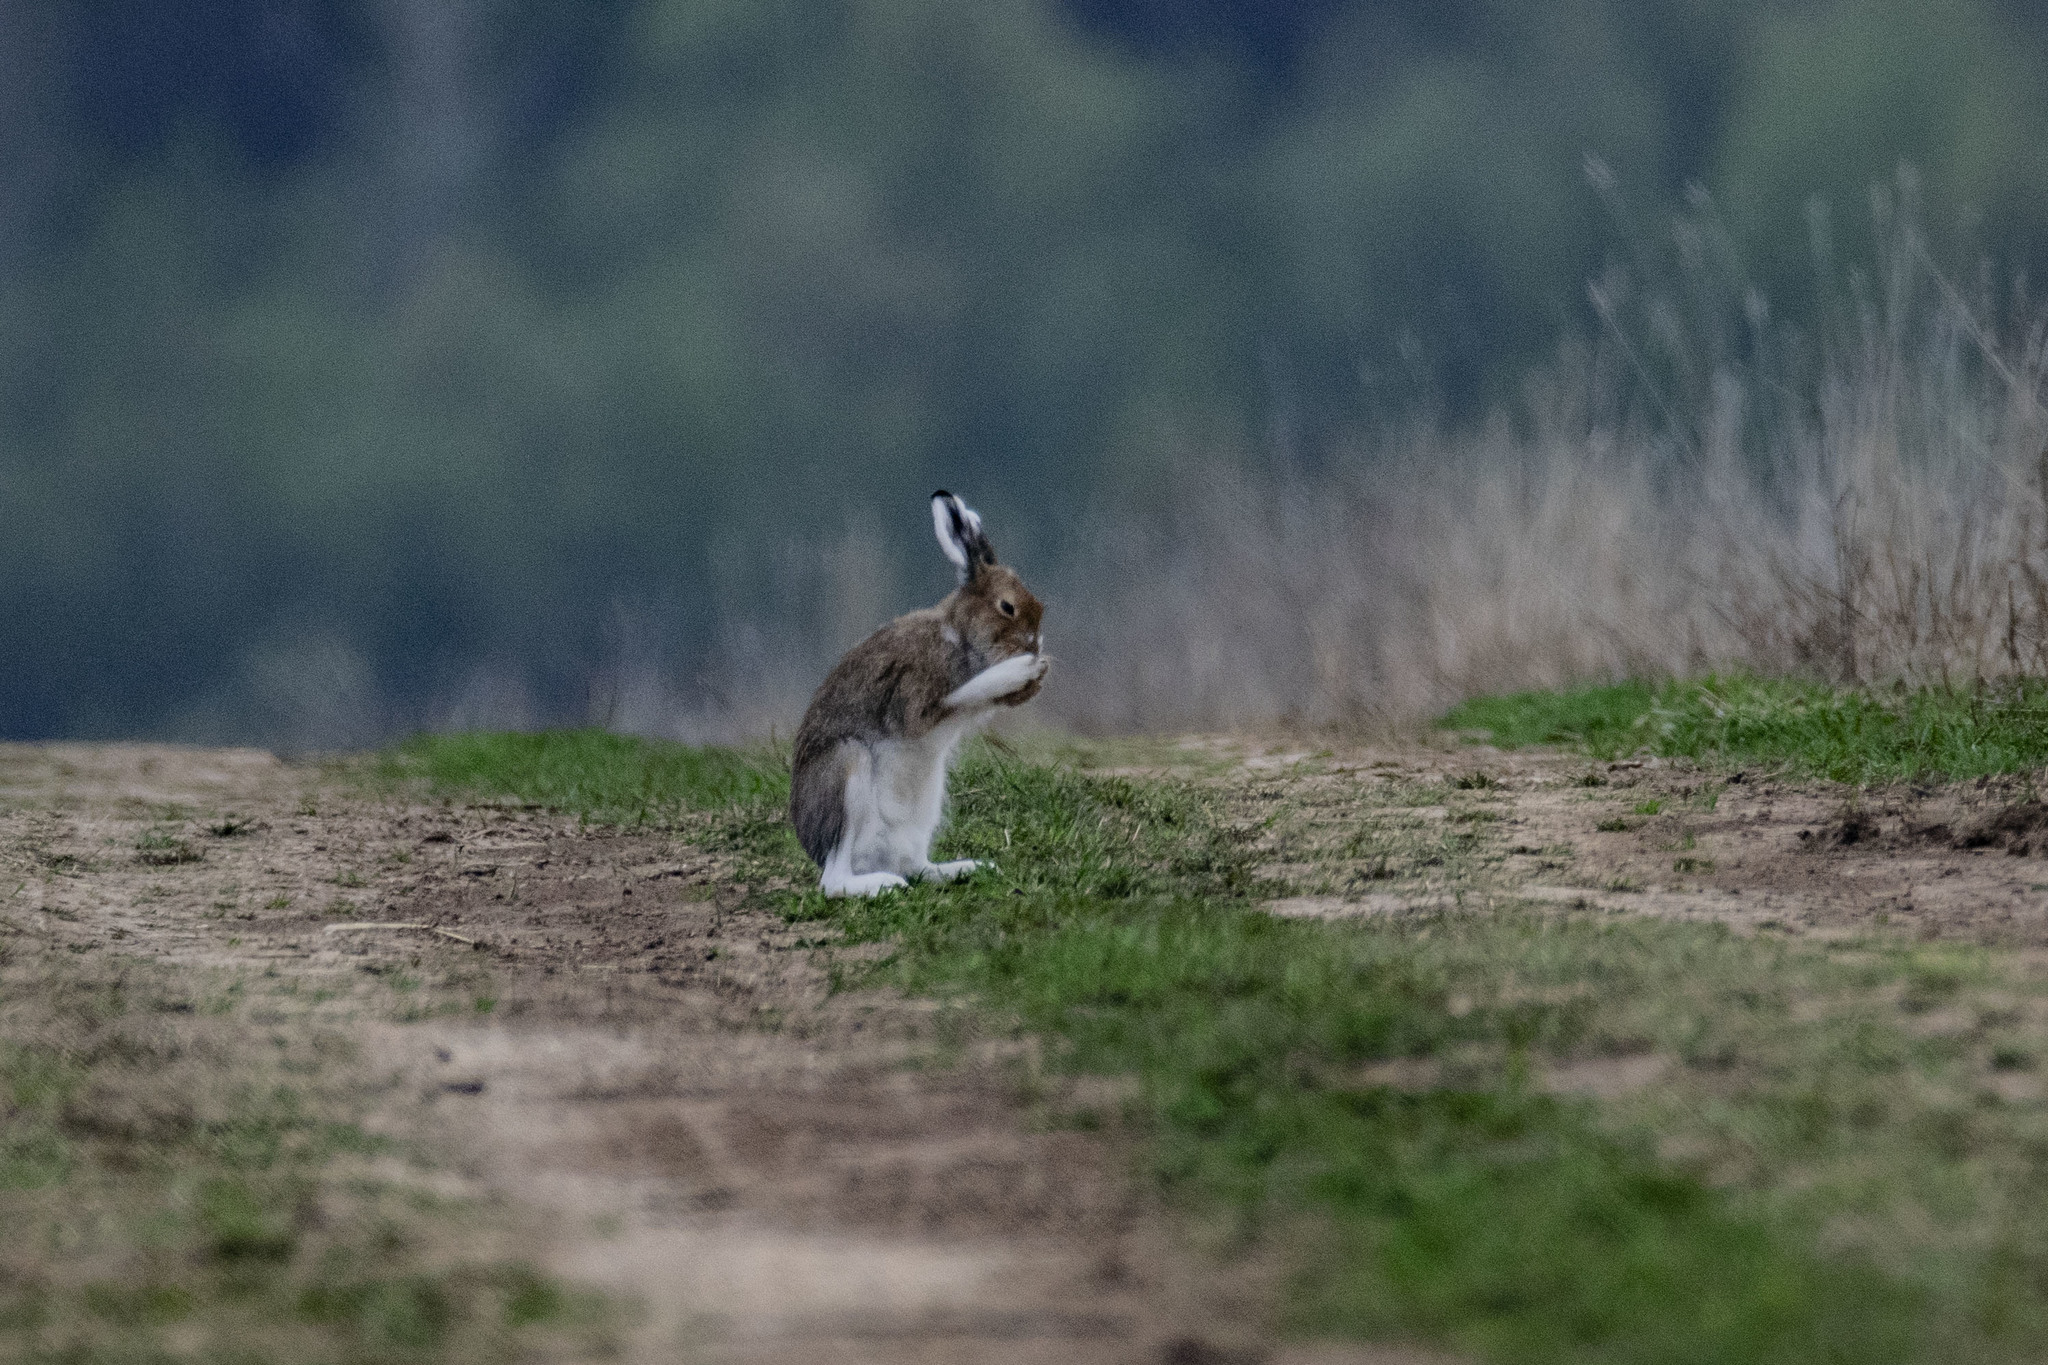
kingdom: Animalia
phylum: Chordata
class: Mammalia
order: Lagomorpha
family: Leporidae
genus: Lepus
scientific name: Lepus timidus
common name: Mountain hare
